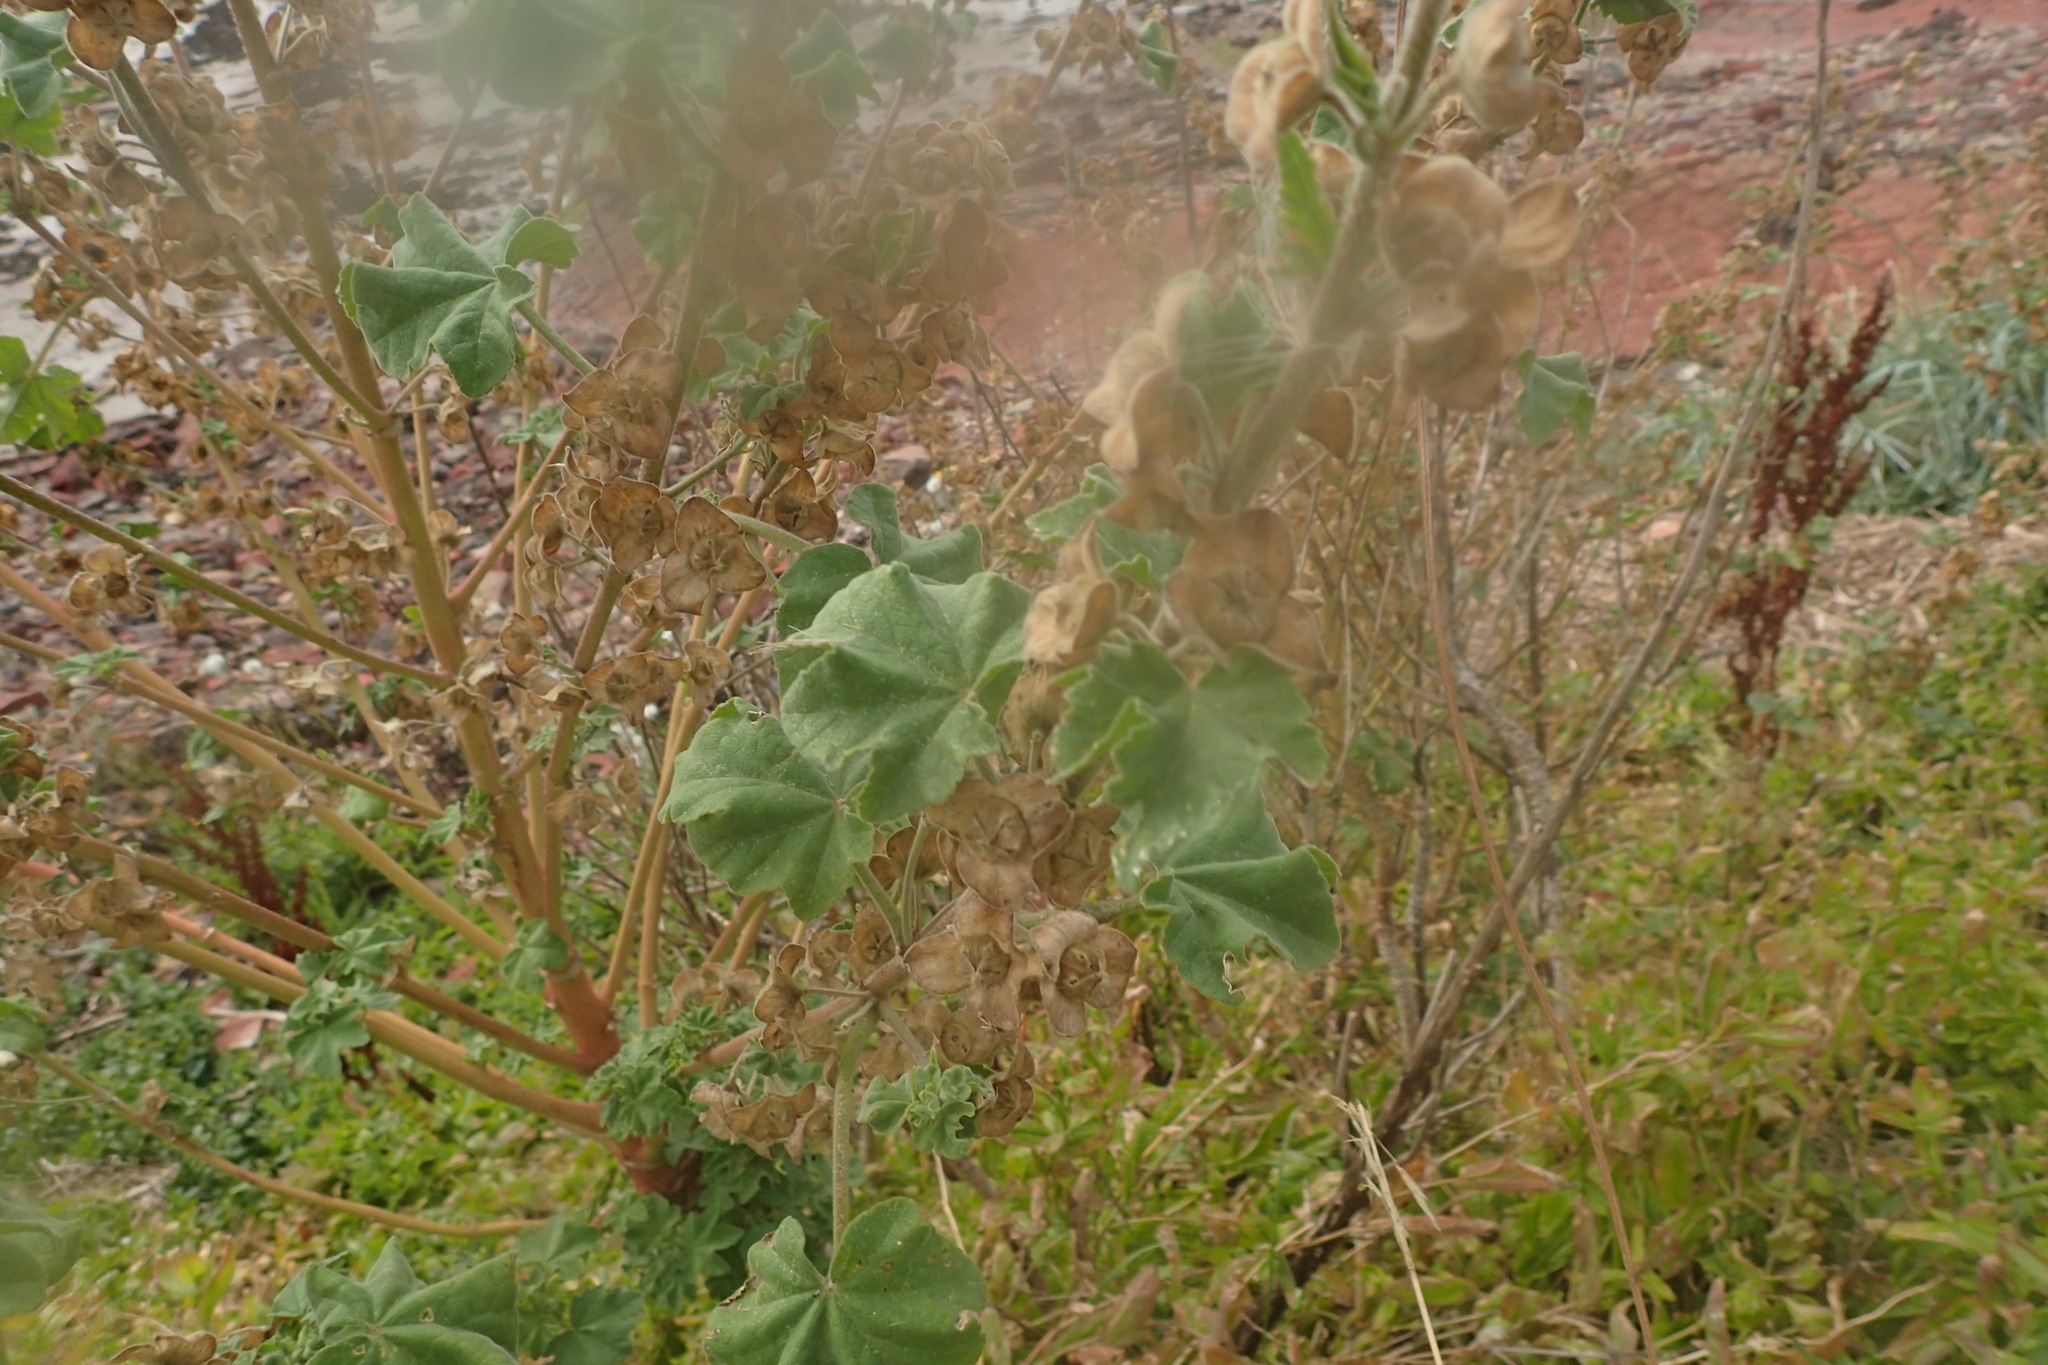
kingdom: Plantae
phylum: Tracheophyta
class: Magnoliopsida
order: Malvales
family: Malvaceae
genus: Malva
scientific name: Malva arborea
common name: Tree mallow
